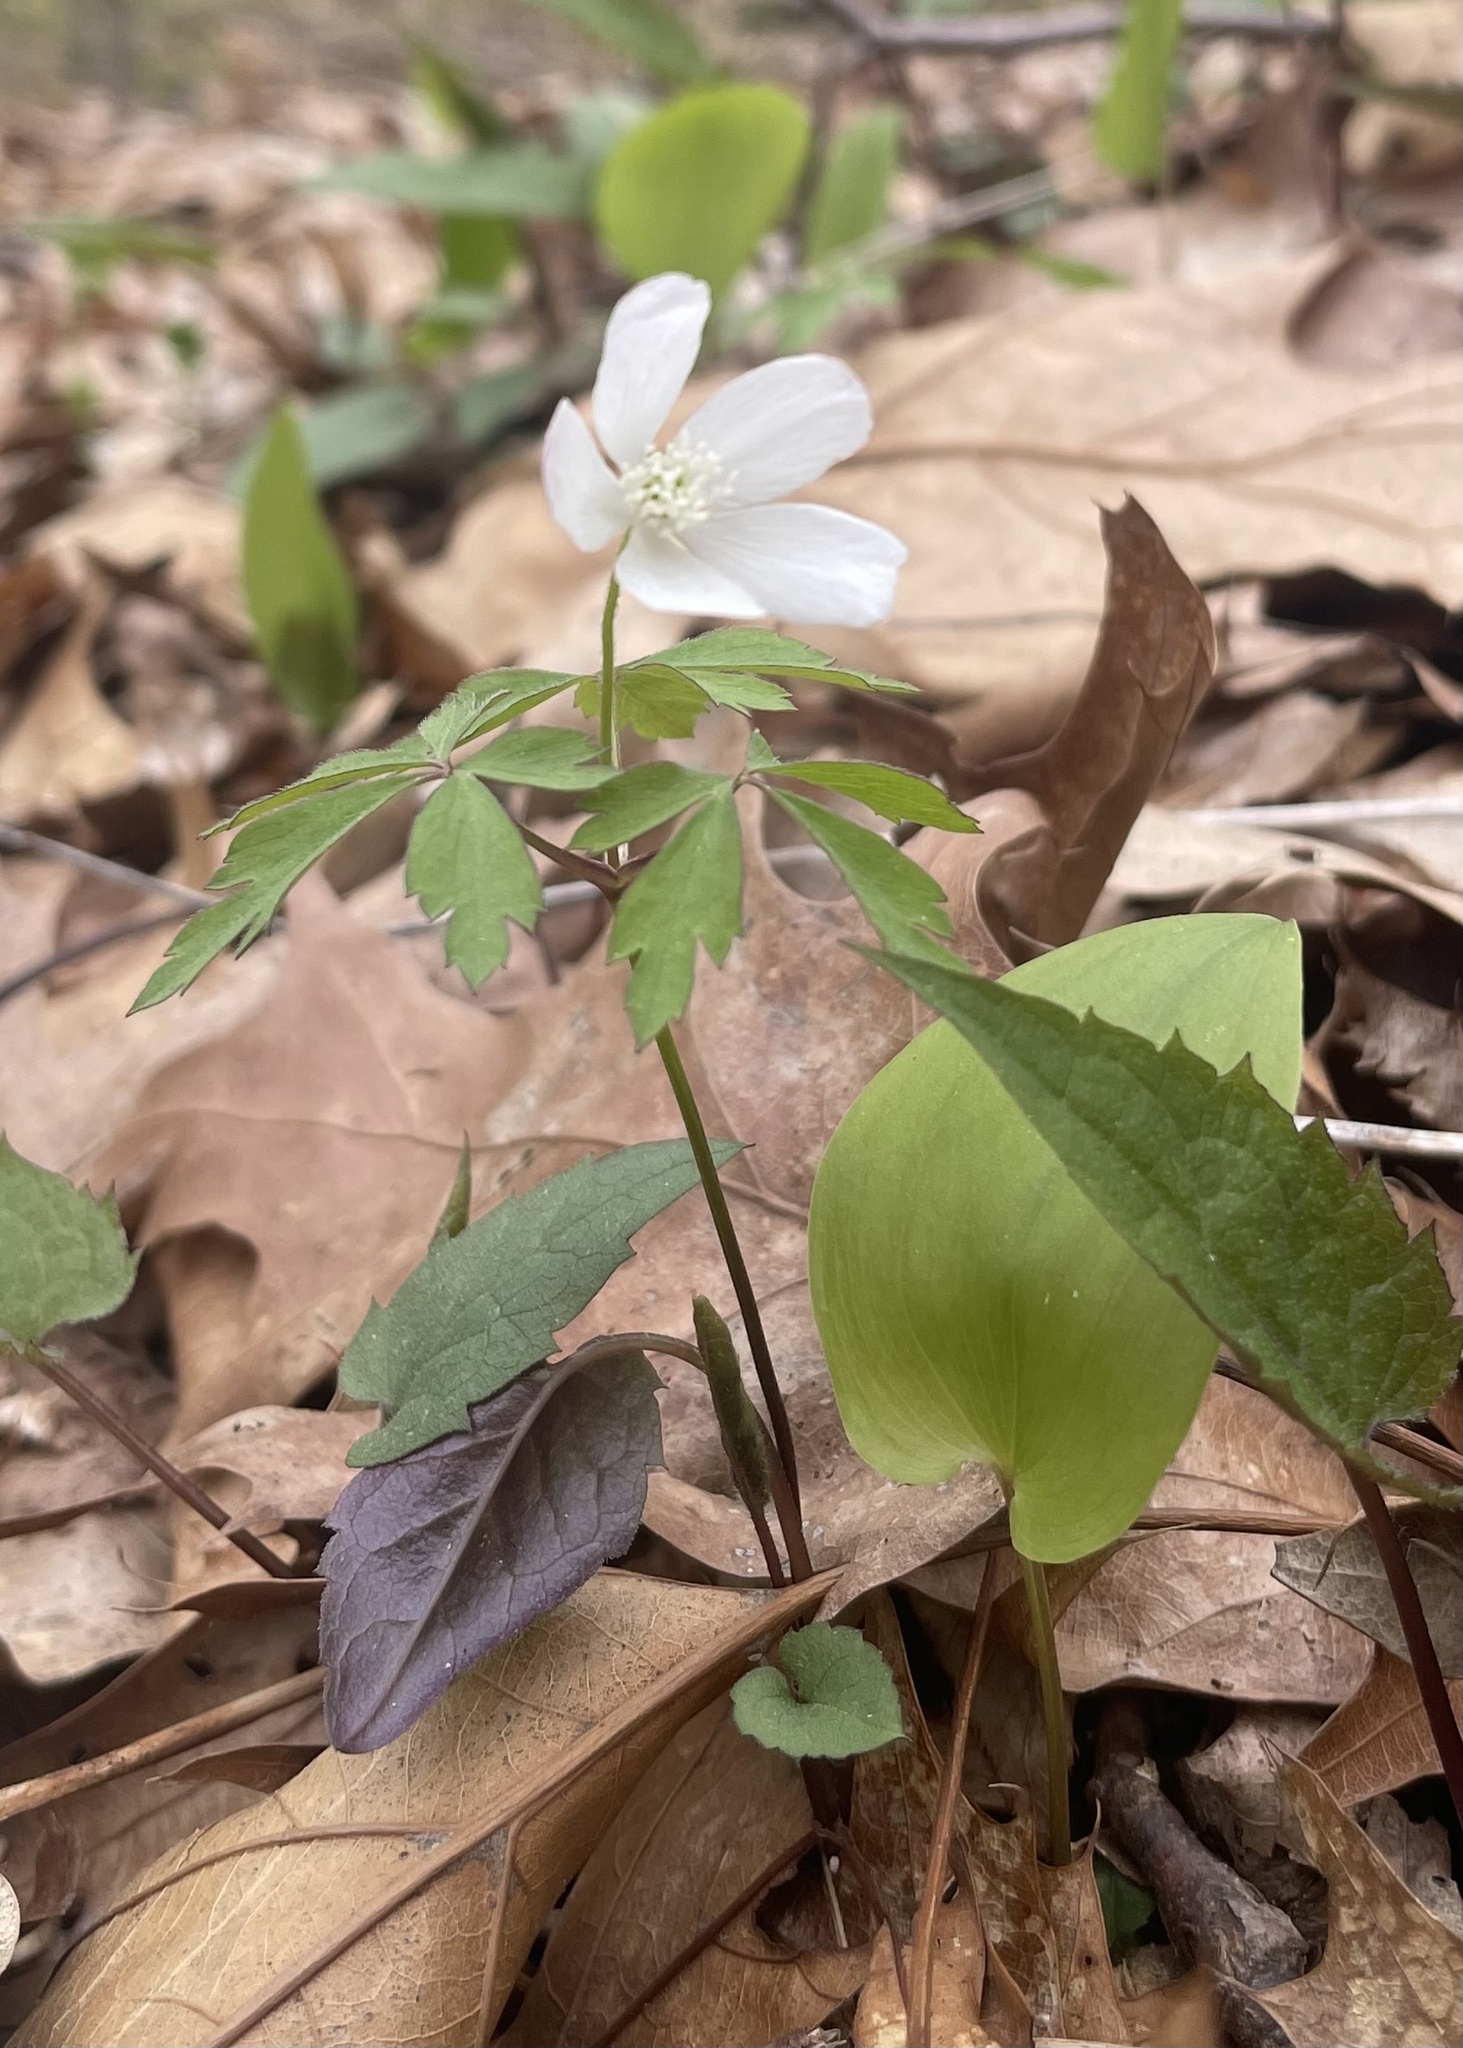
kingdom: Plantae
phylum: Tracheophyta
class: Magnoliopsida
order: Ranunculales
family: Ranunculaceae
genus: Anemone
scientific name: Anemone quinquefolia
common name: Wood anemone
